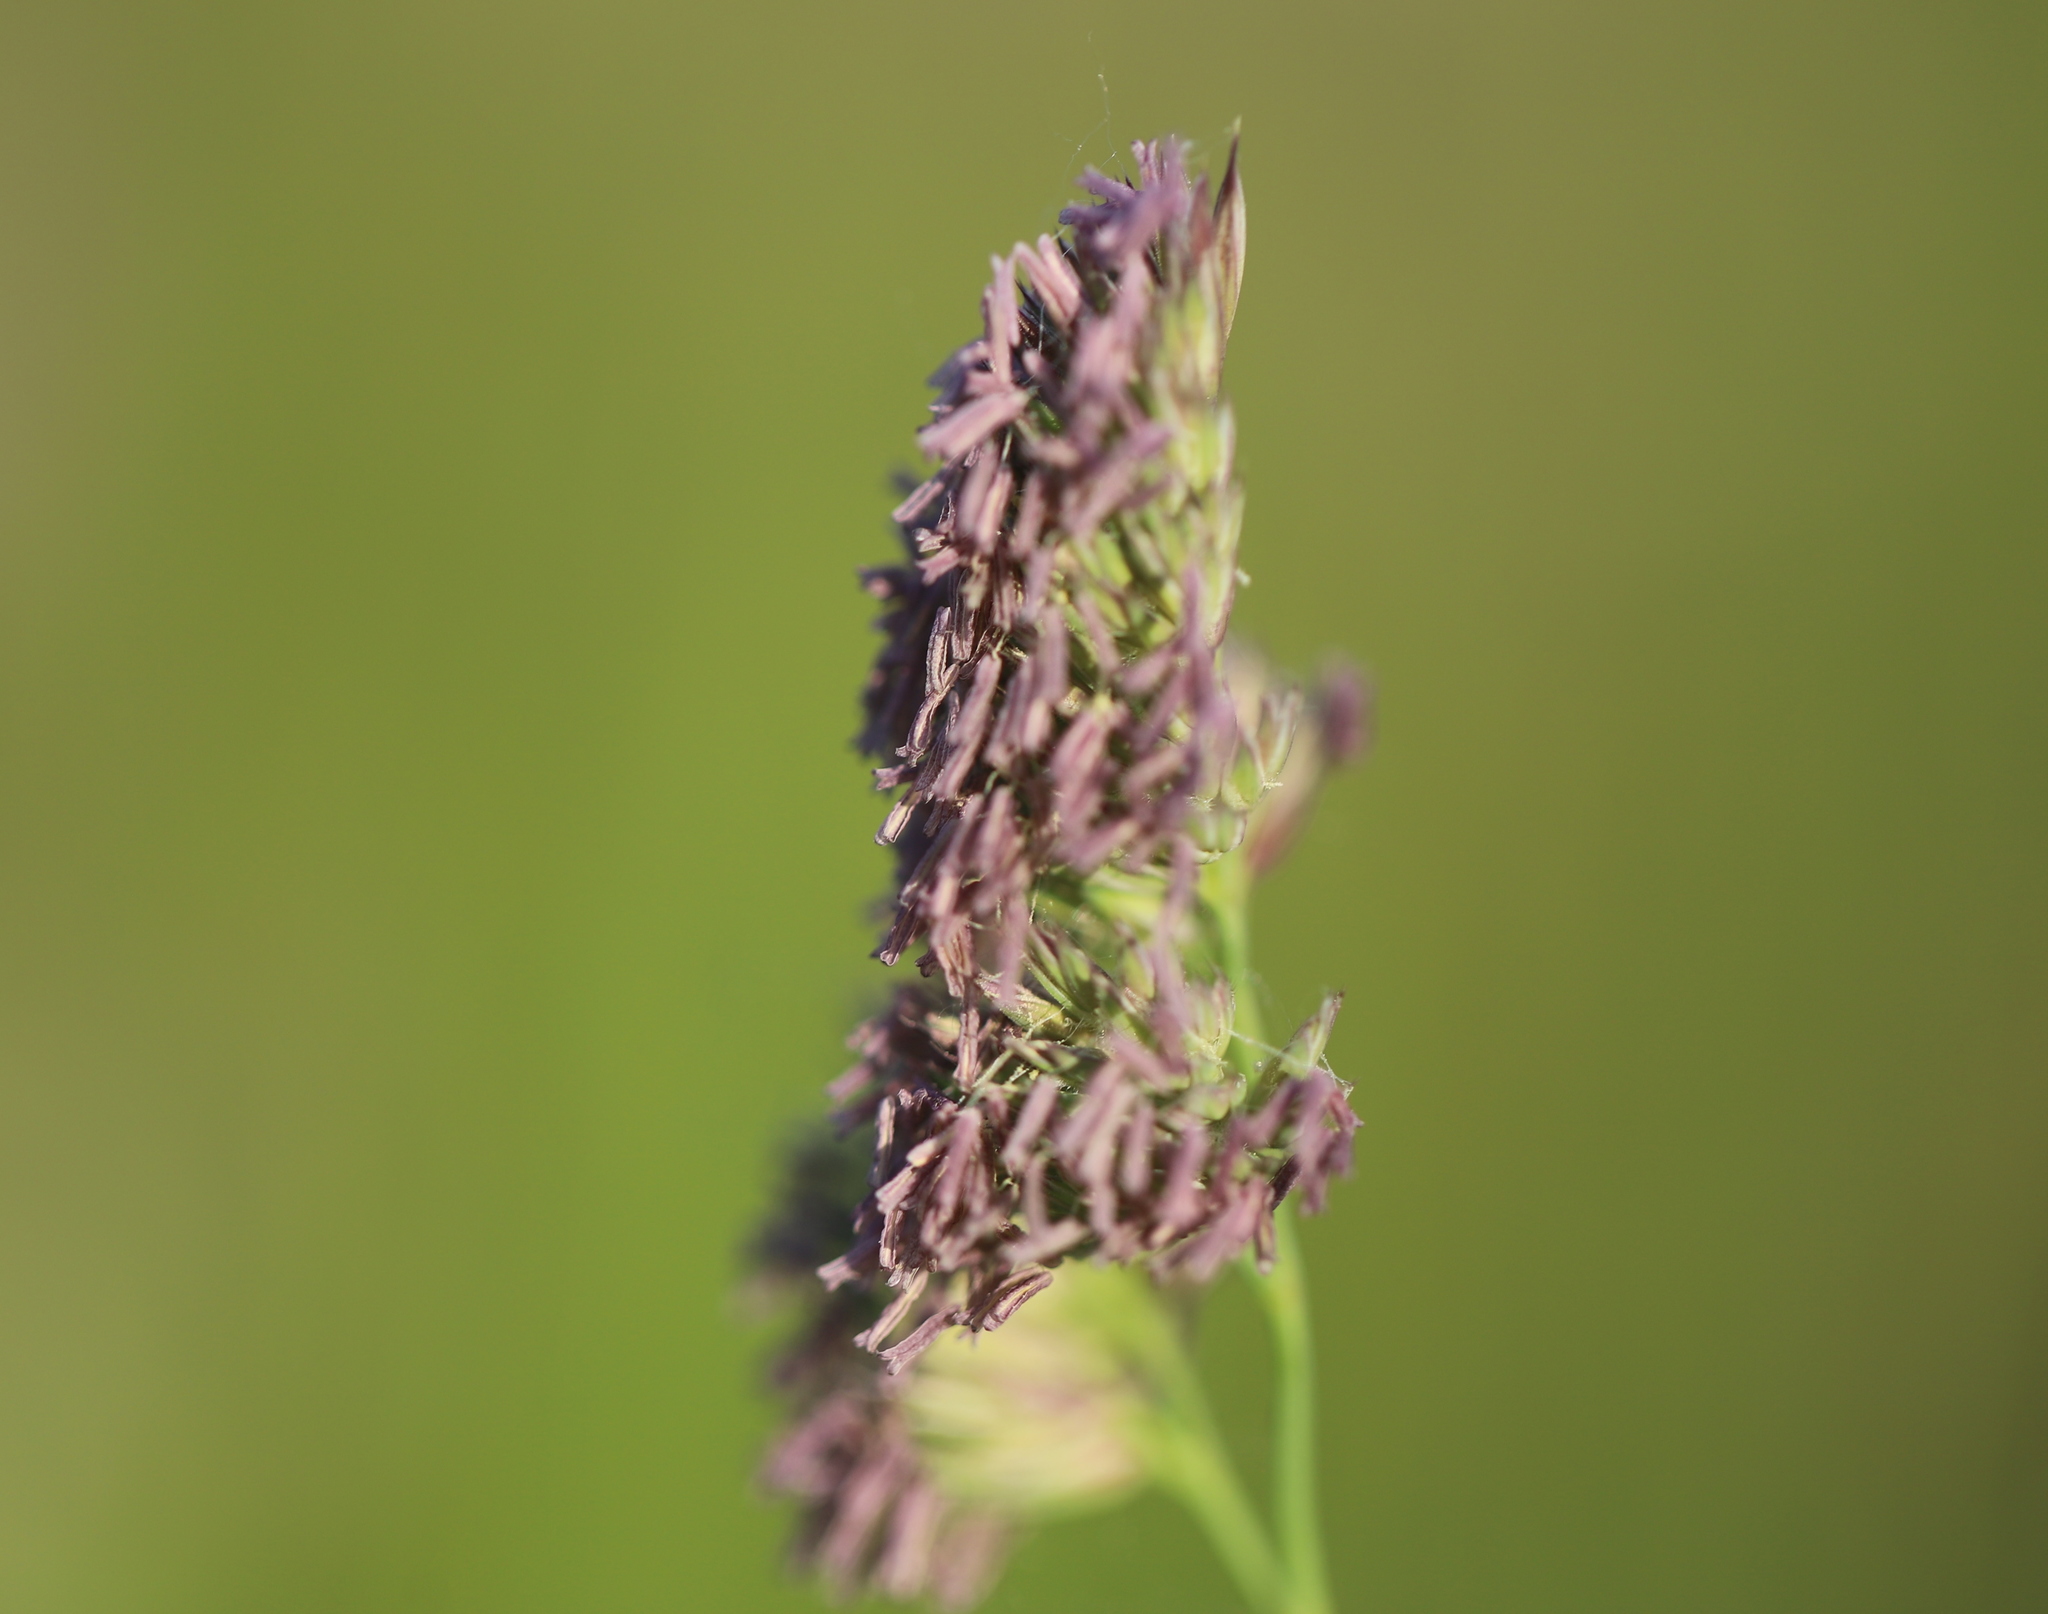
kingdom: Plantae
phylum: Tracheophyta
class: Liliopsida
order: Poales
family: Poaceae
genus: Dactylis
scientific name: Dactylis glomerata
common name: Orchardgrass
